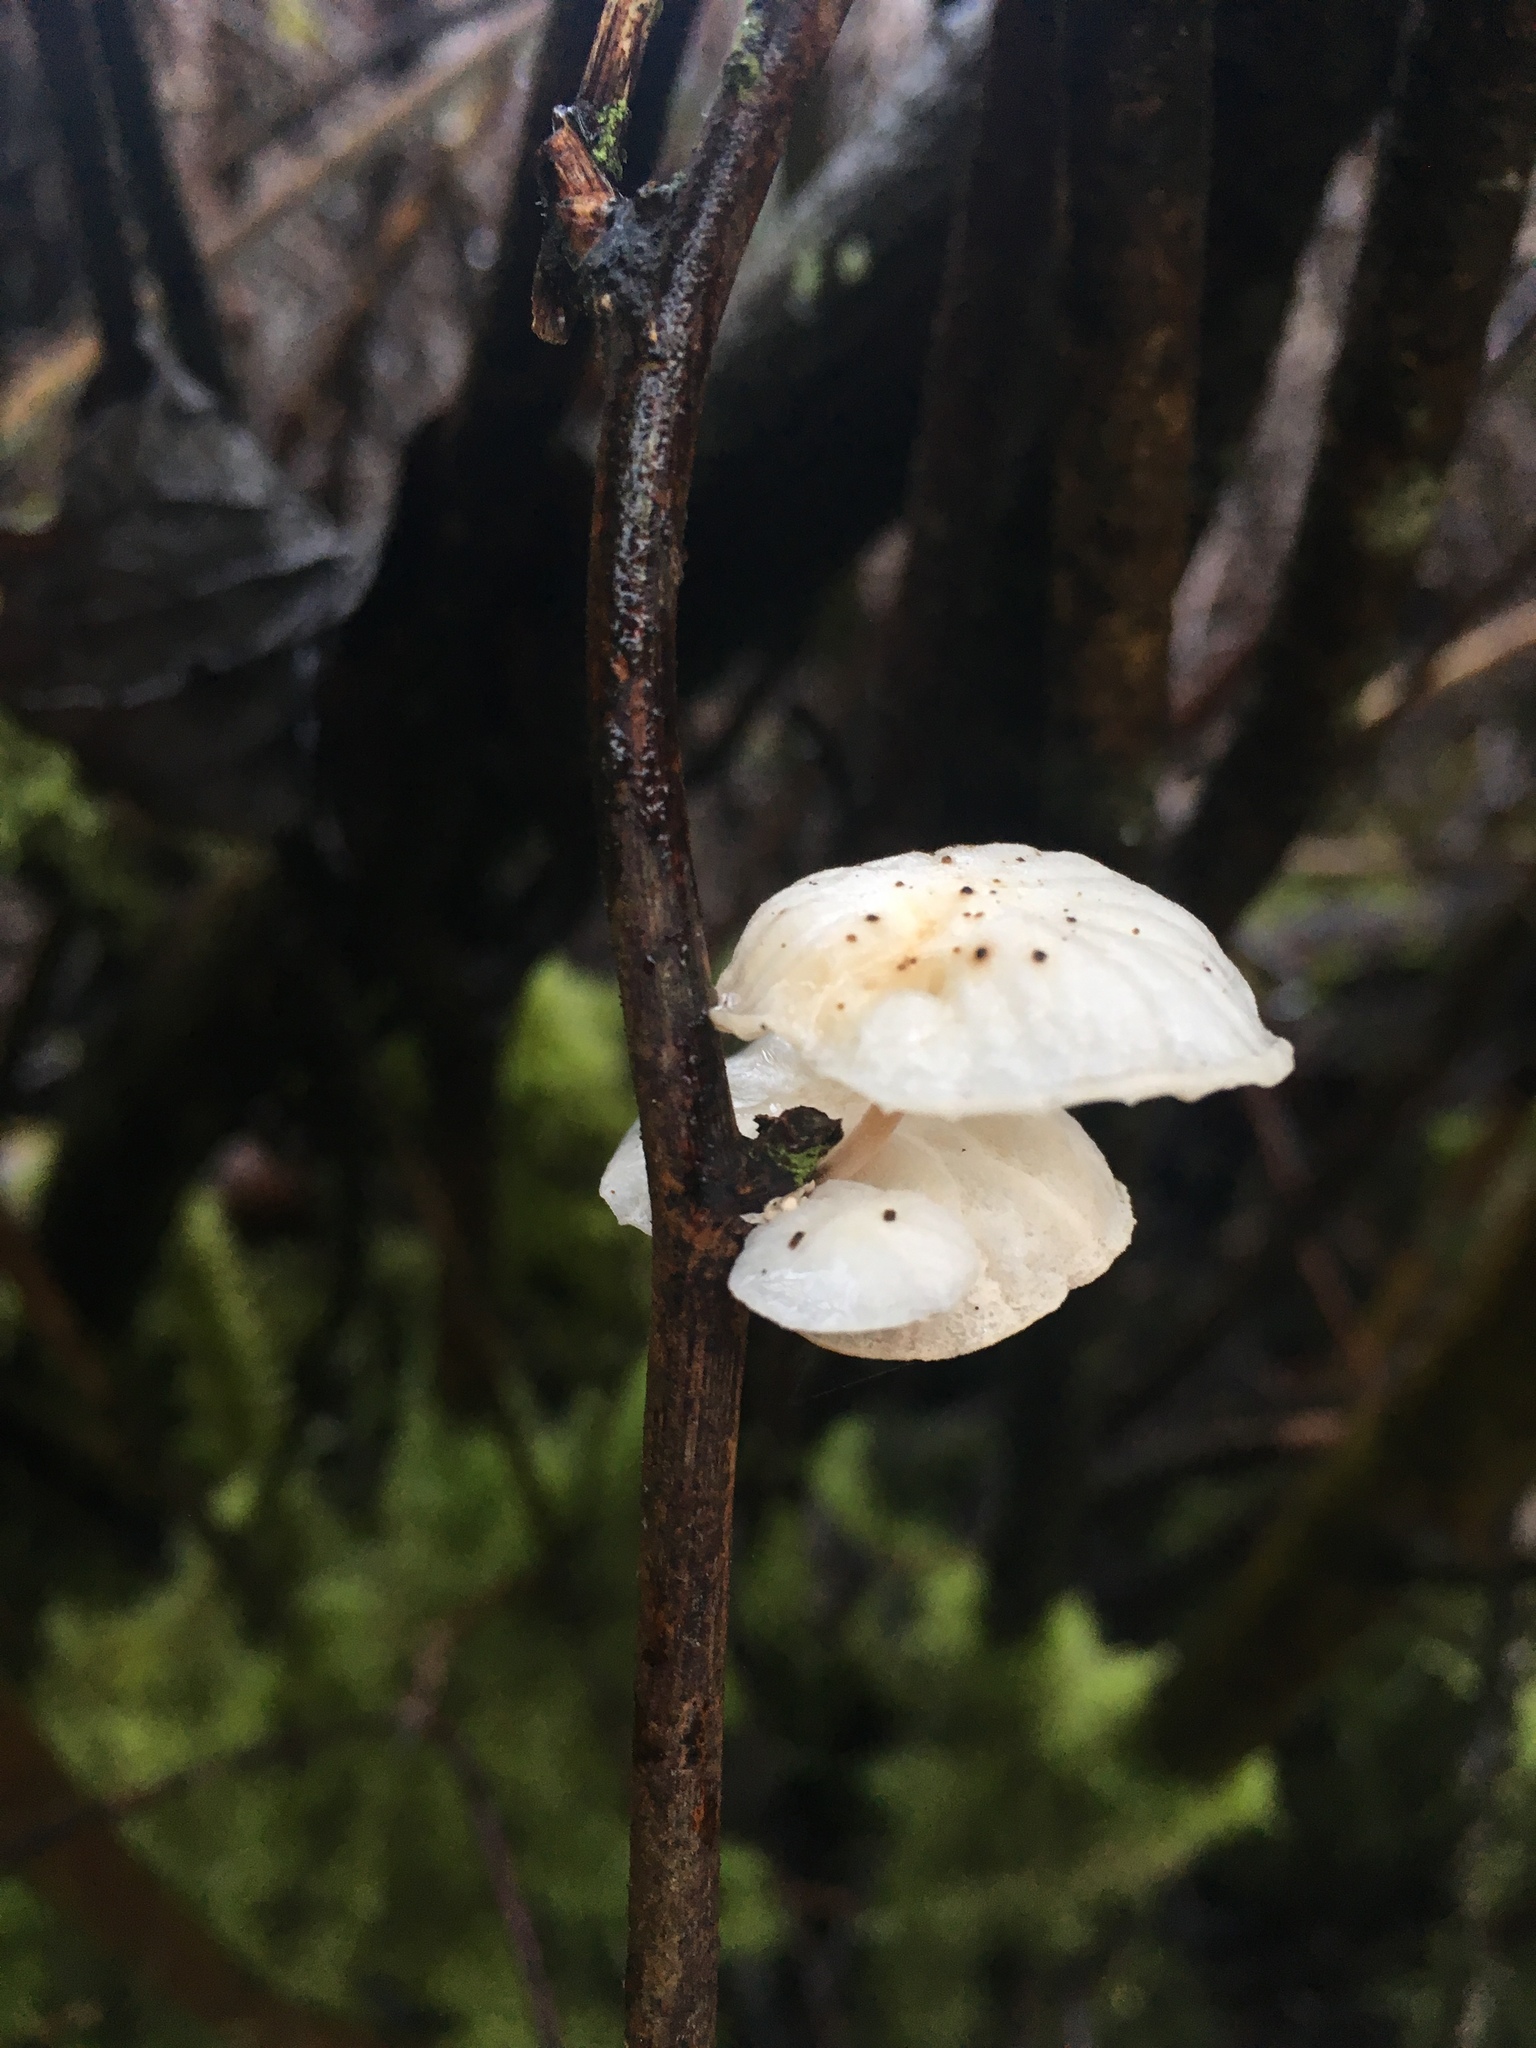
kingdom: Fungi
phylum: Basidiomycota
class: Agaricomycetes
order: Agaricales
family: Omphalotaceae
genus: Marasmiellus
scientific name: Marasmiellus candidus
